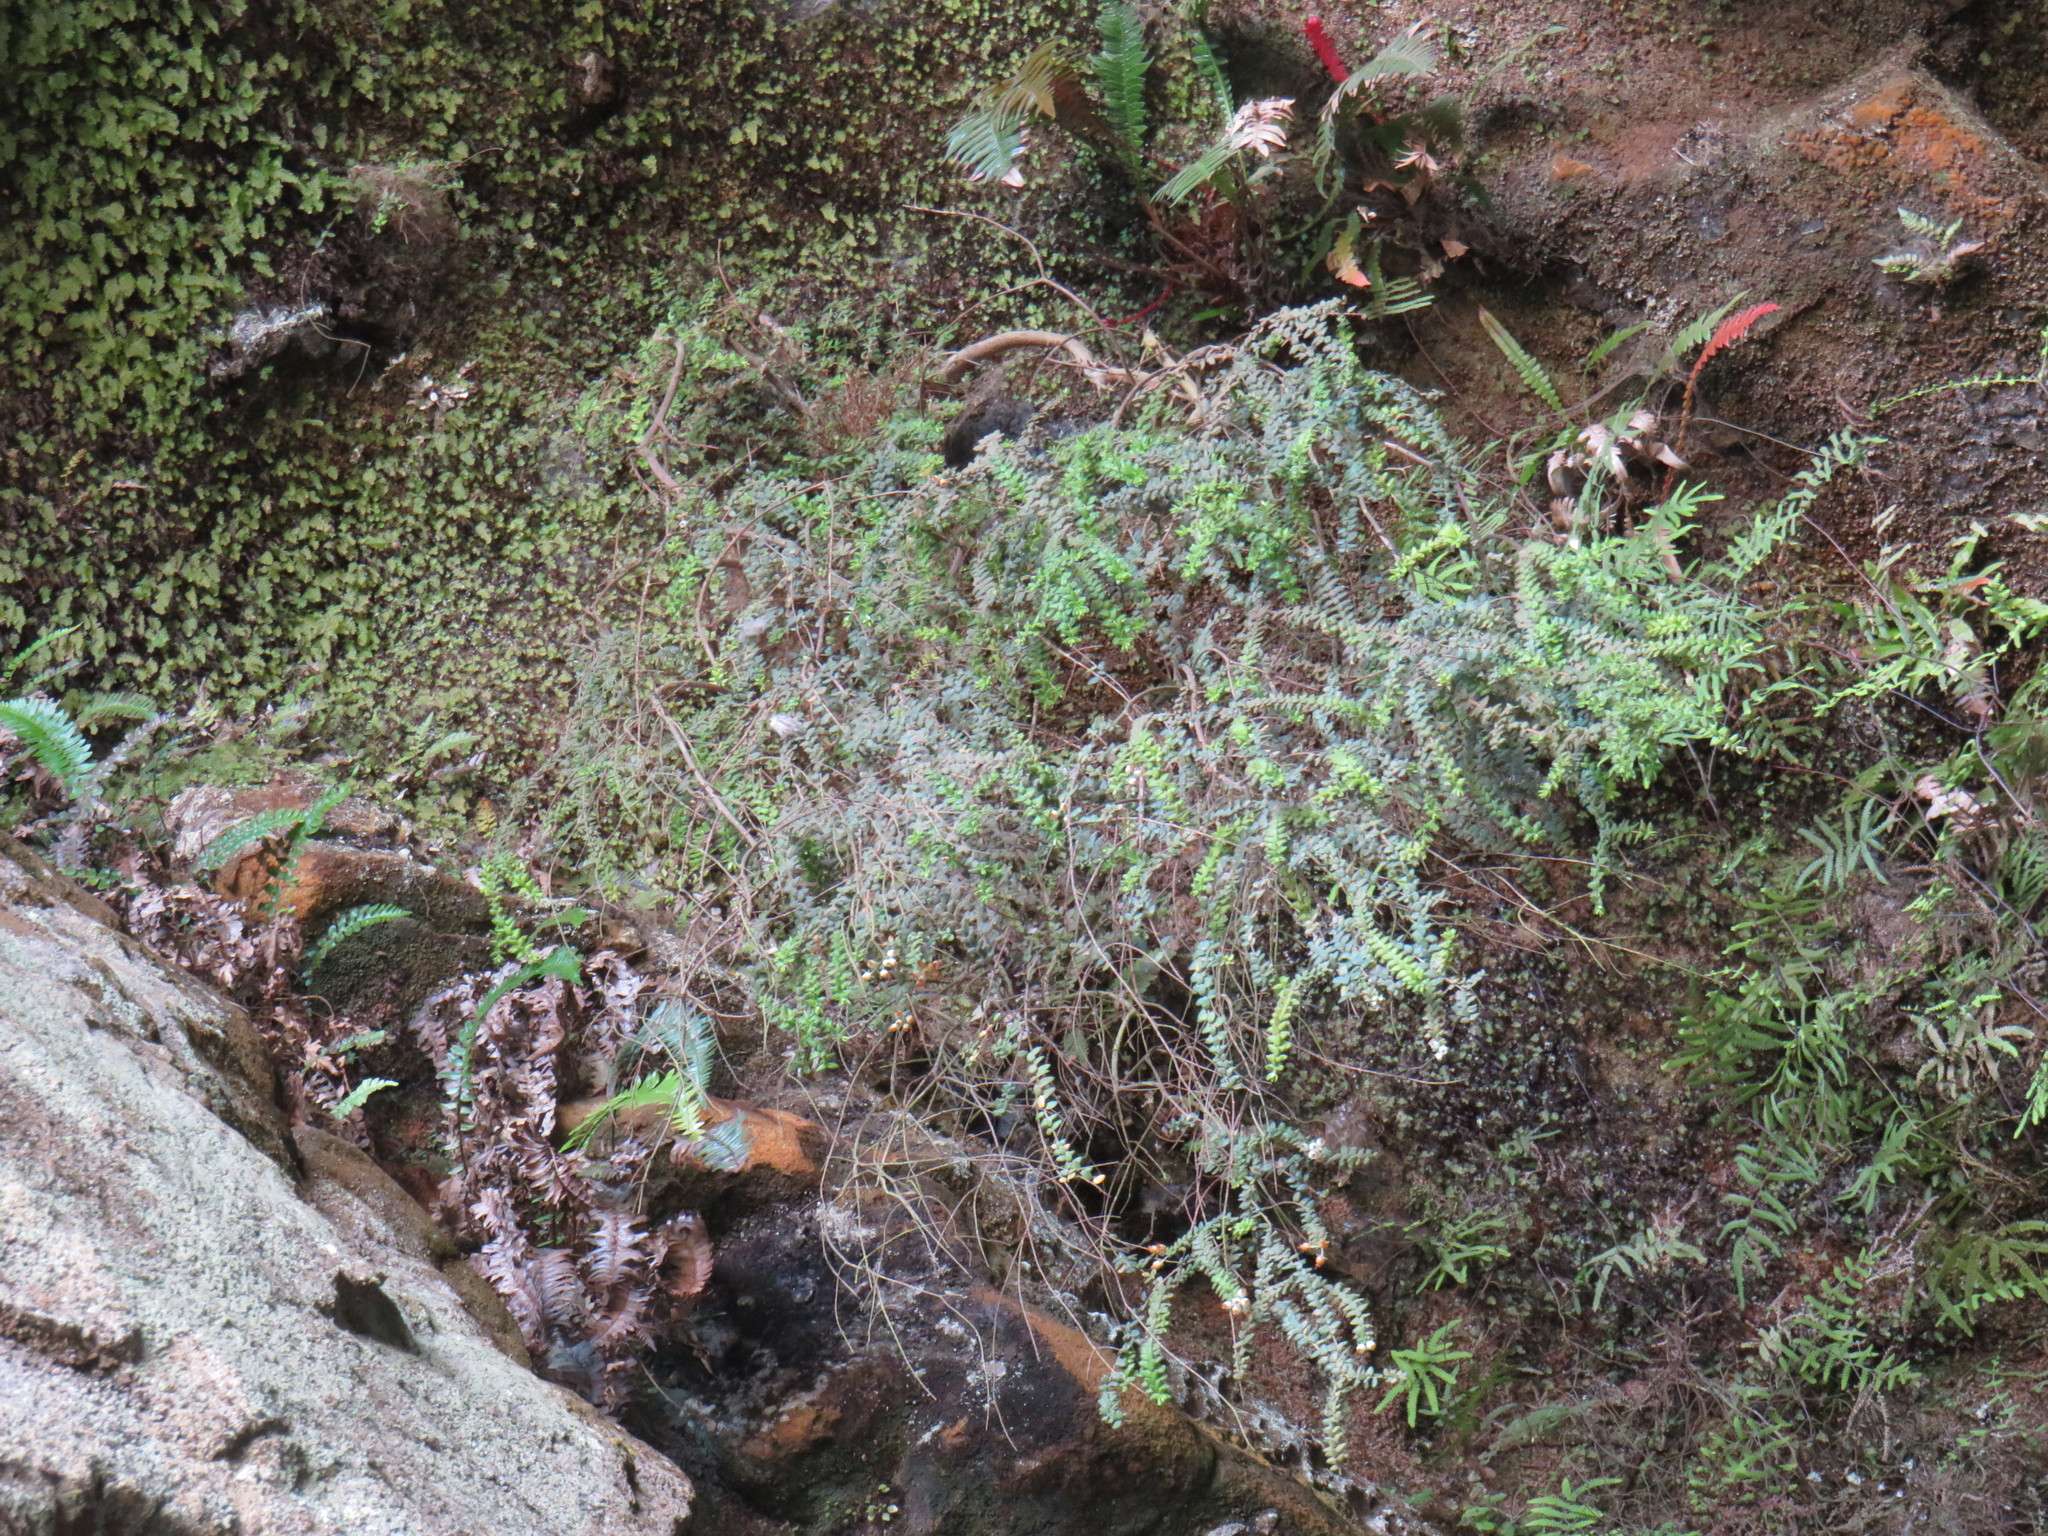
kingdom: Plantae
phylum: Tracheophyta
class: Magnoliopsida
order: Ericales
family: Ericaceae
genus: Erica
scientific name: Erica marifolia
